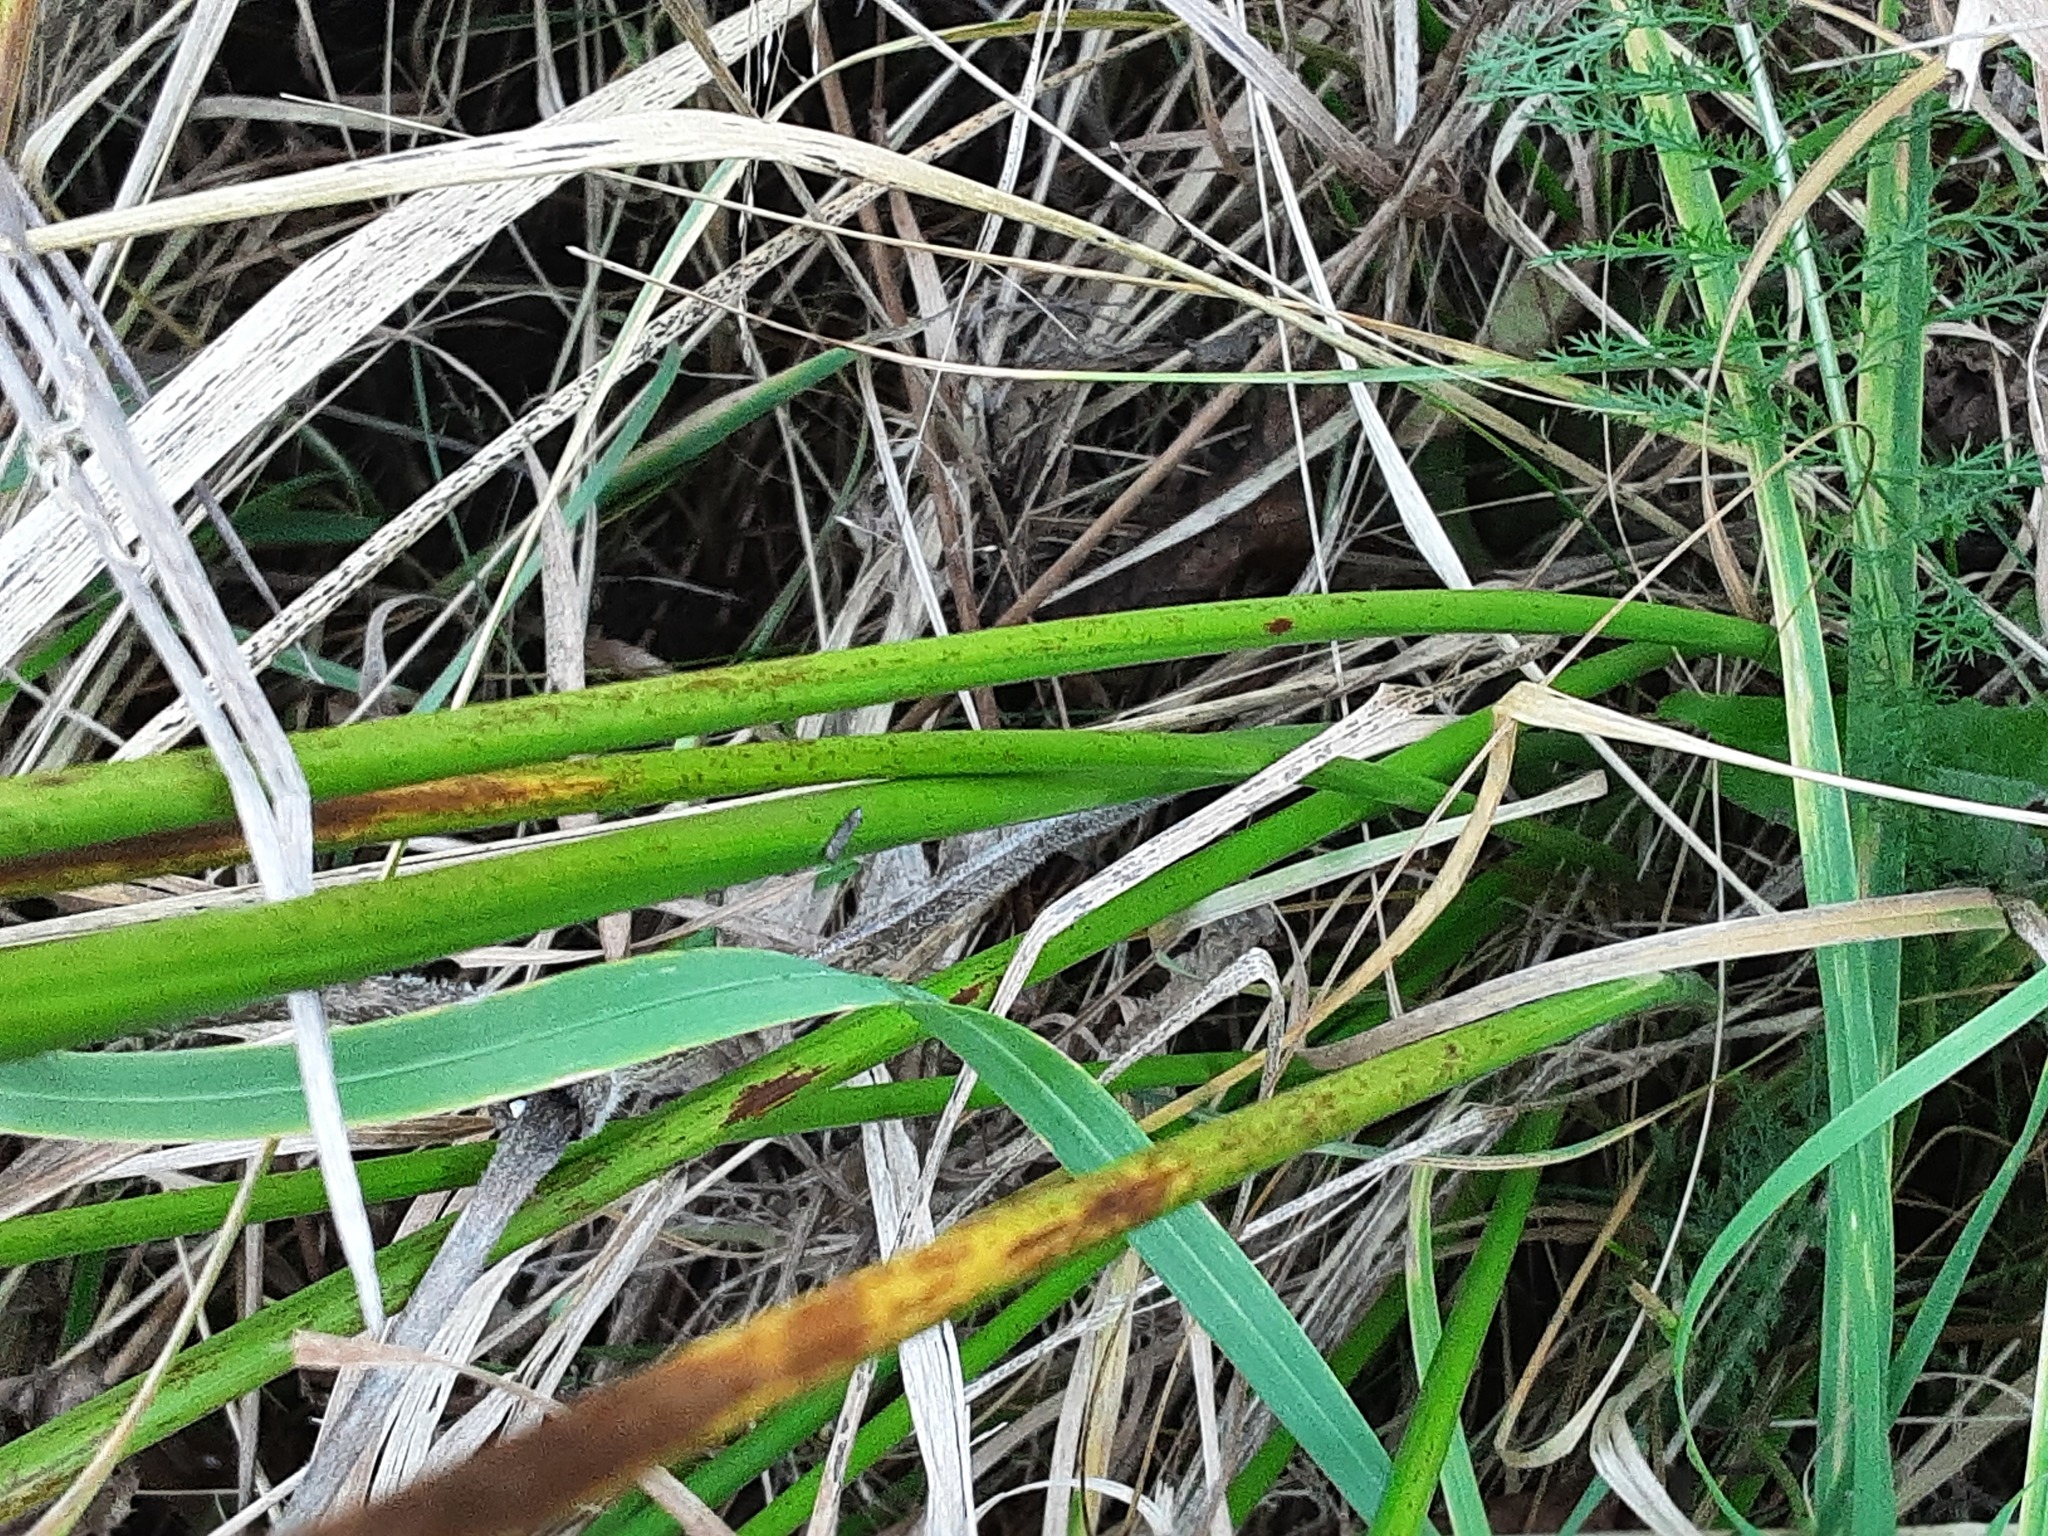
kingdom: Plantae
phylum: Tracheophyta
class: Liliopsida
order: Poales
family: Juncaceae
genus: Juncus
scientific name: Juncus effusus
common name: Soft rush
